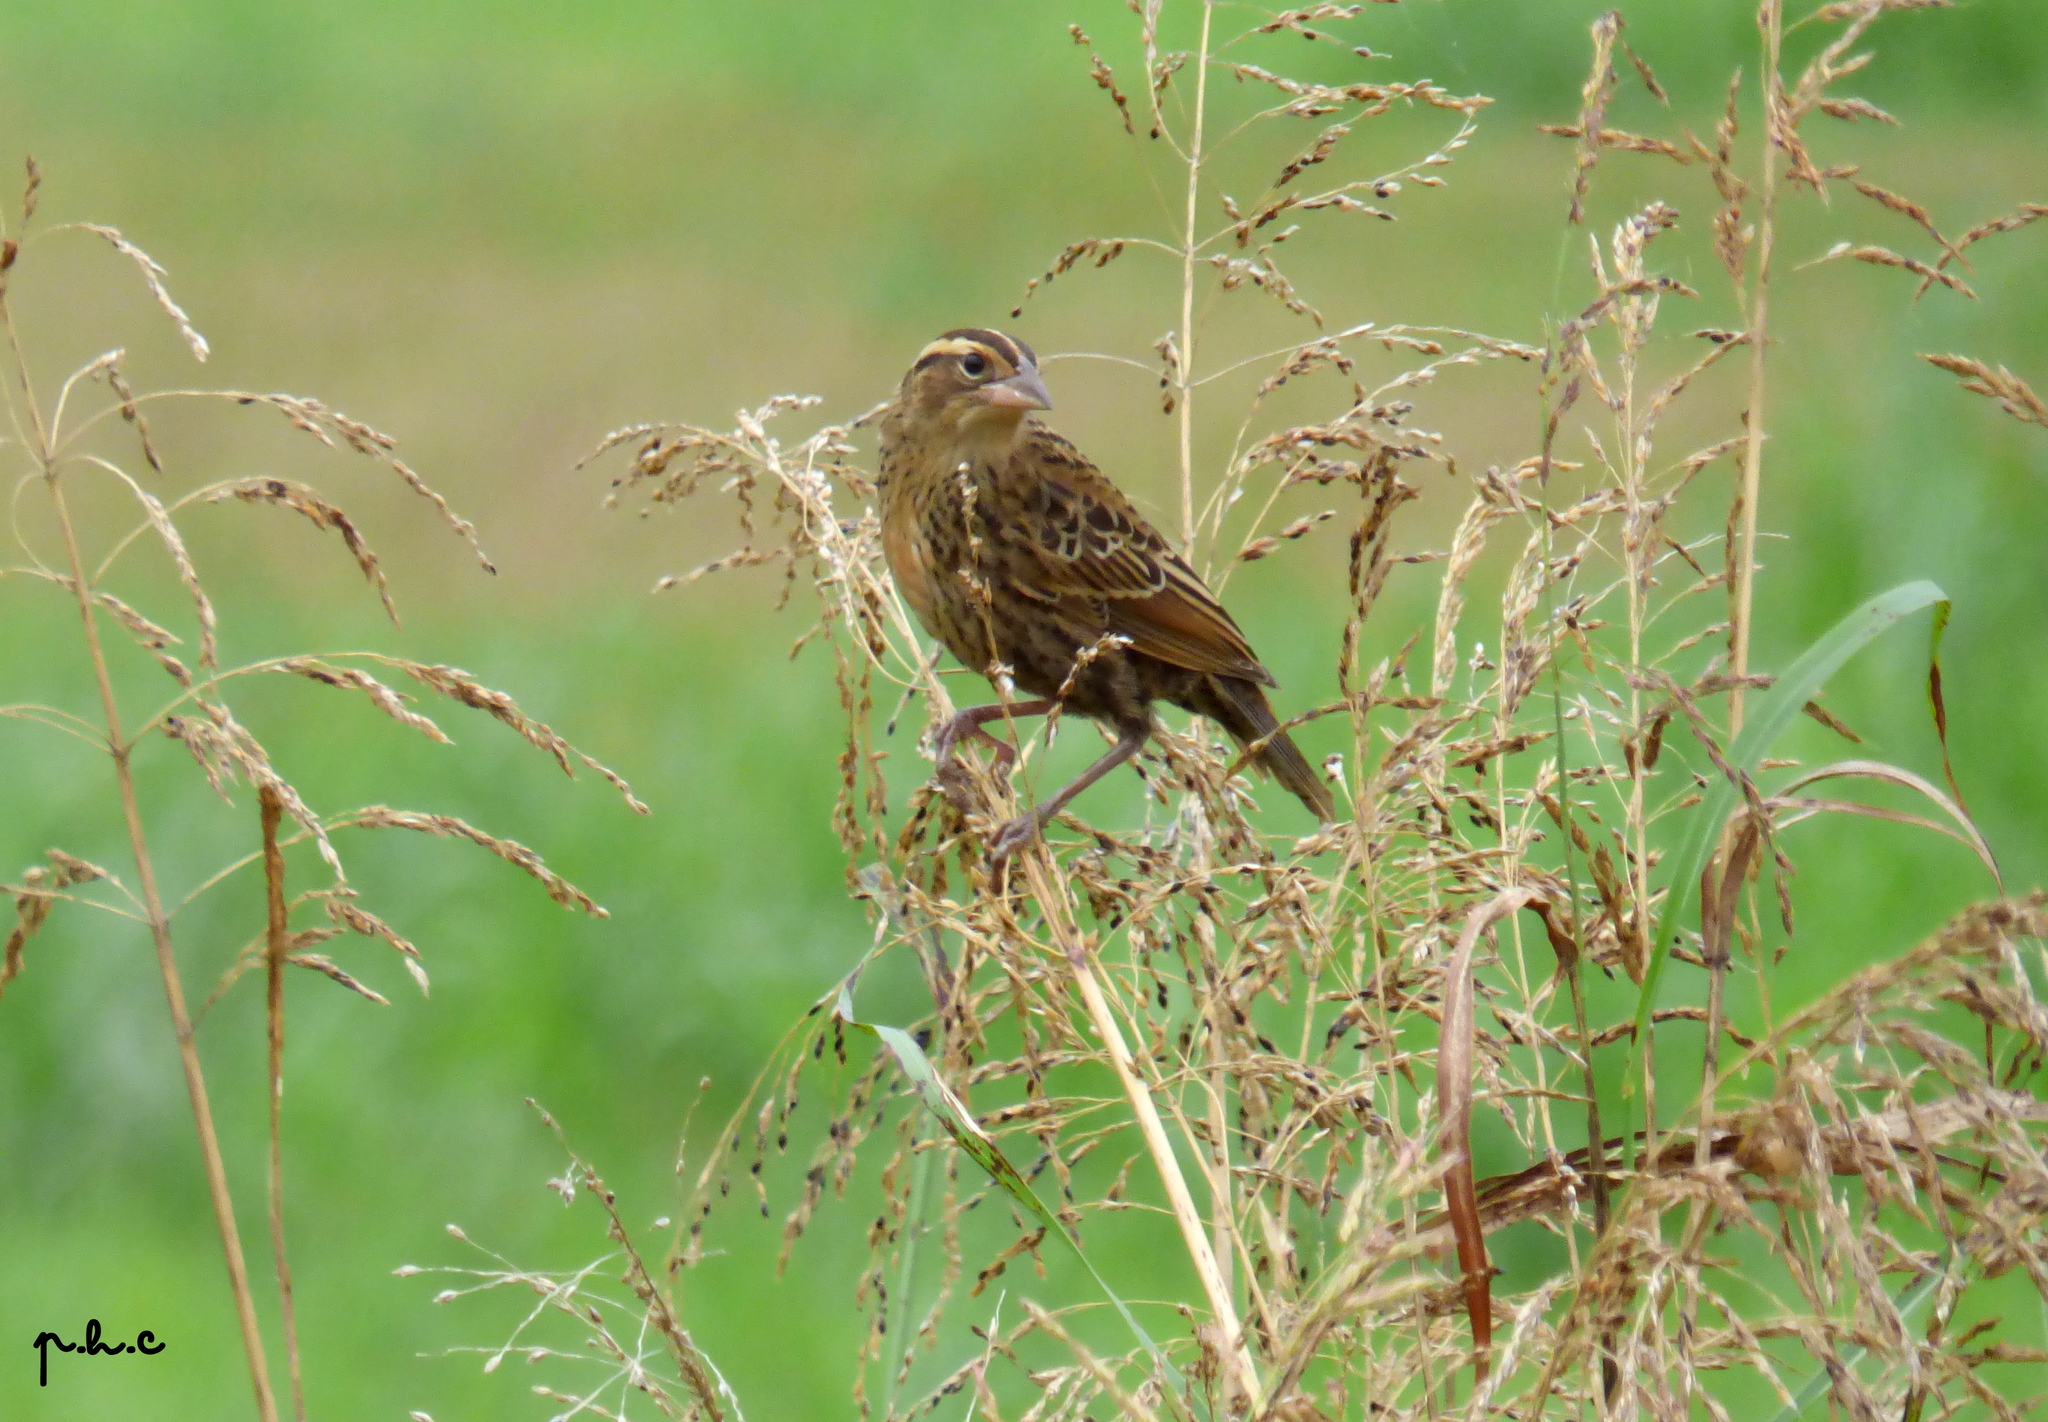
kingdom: Animalia
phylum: Chordata
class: Aves
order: Passeriformes
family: Icteridae
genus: Sturnella
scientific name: Sturnella superciliaris
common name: White-browed blackbird
